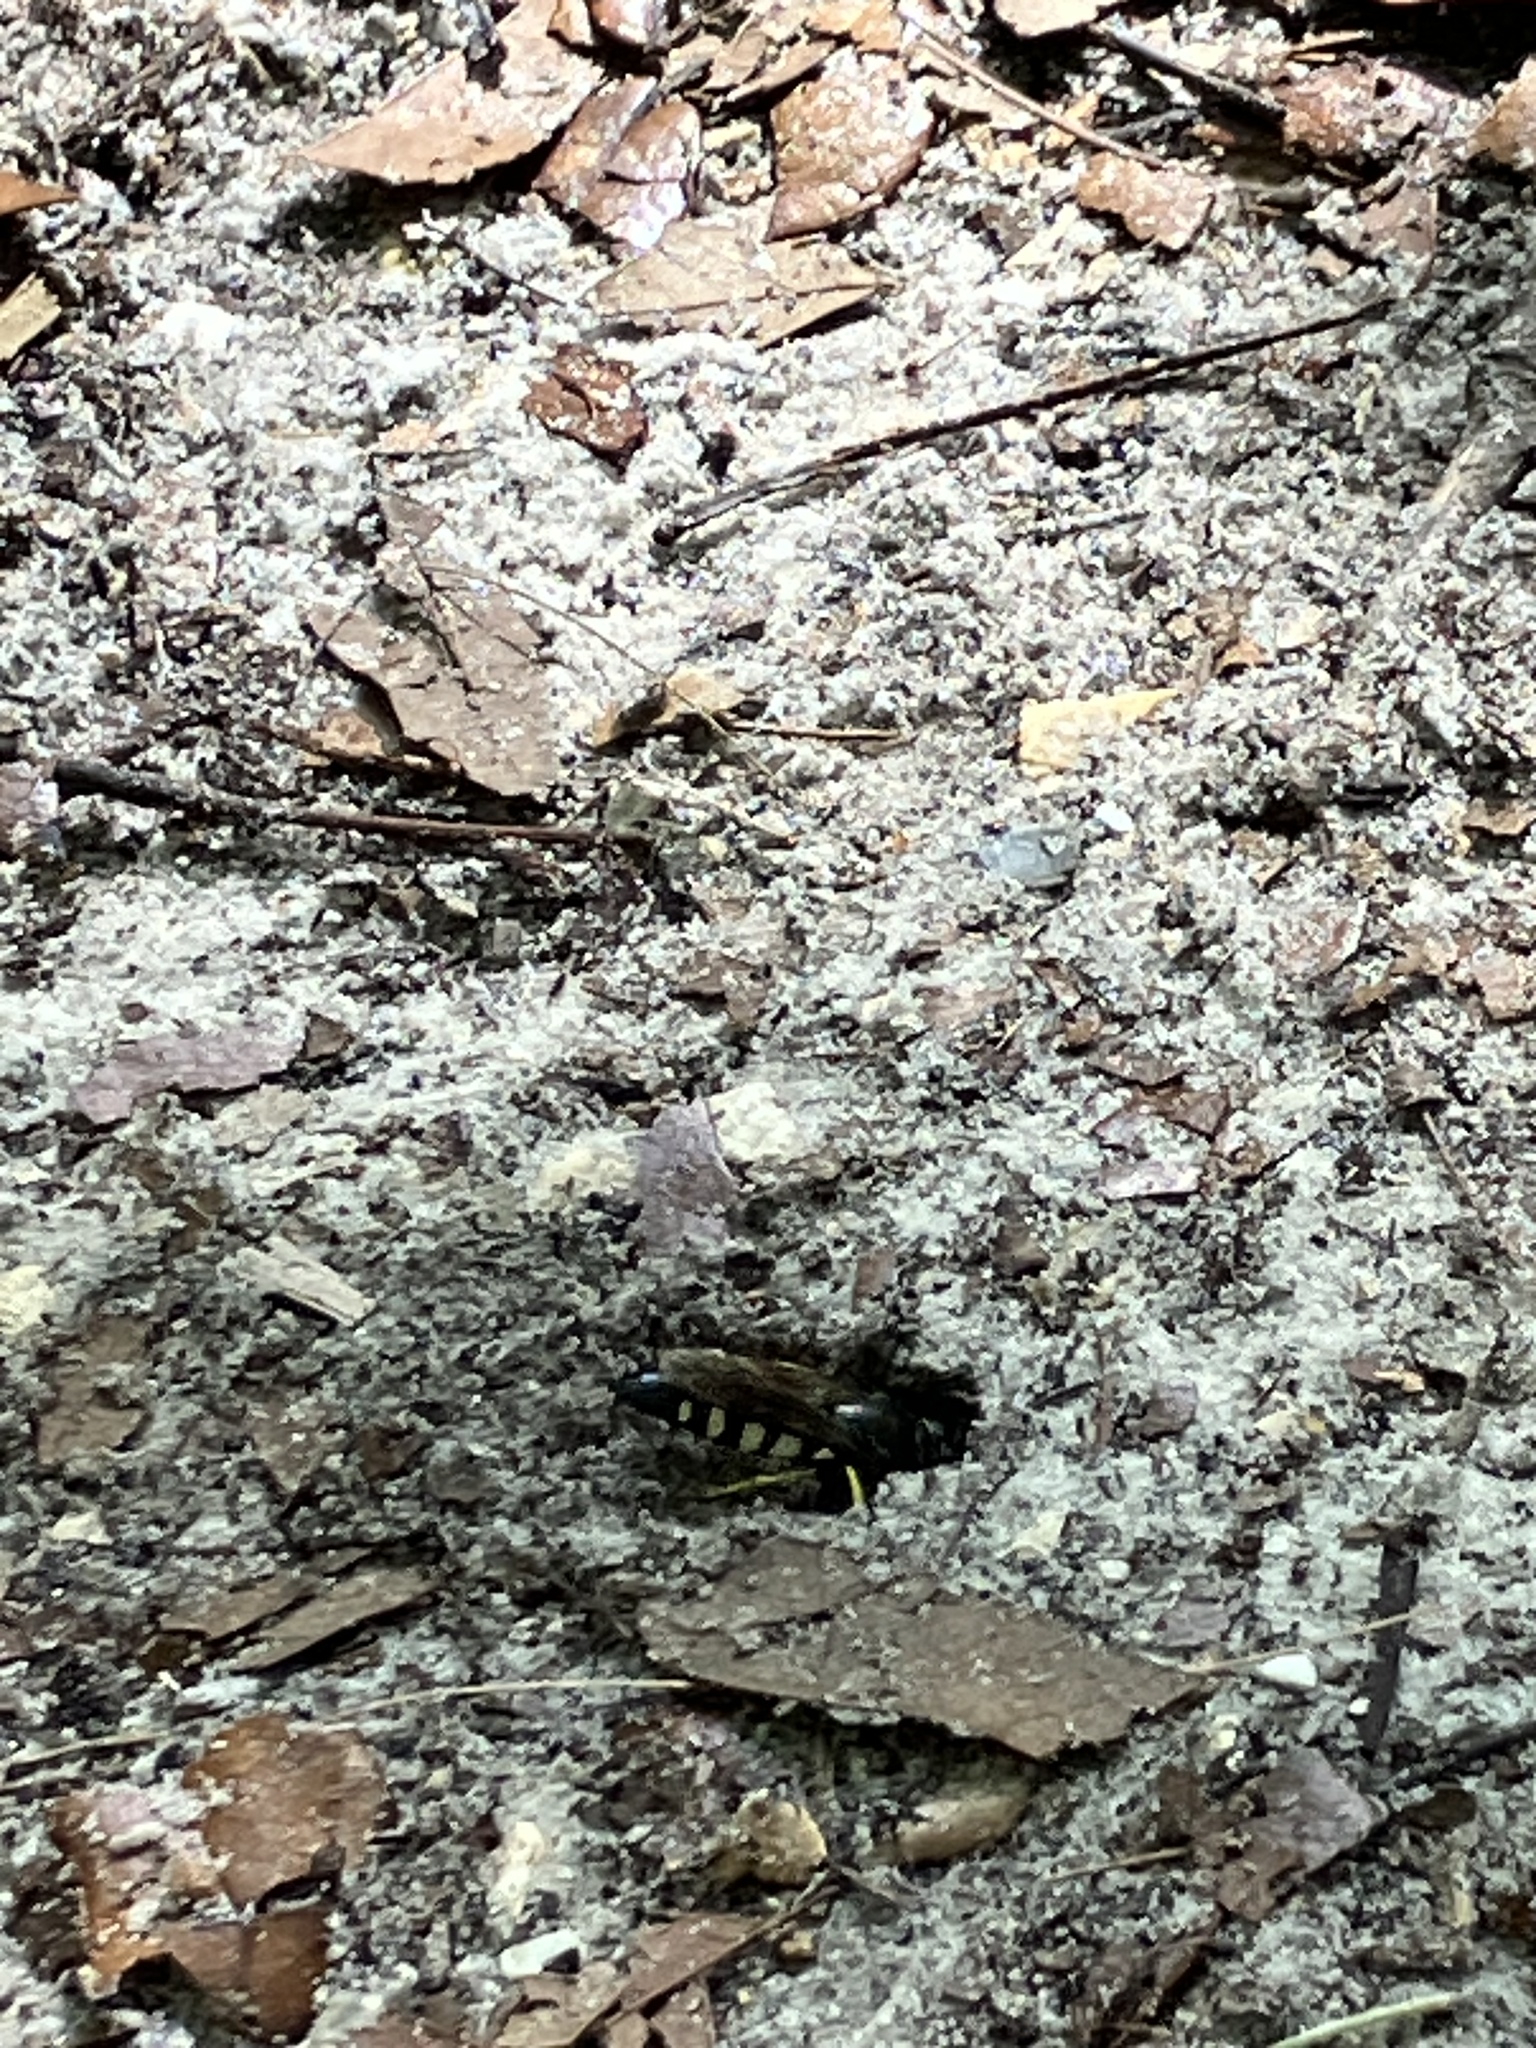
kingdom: Animalia
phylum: Arthropoda
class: Insecta
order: Hymenoptera
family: Crabronidae
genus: Bicyrtes
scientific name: Bicyrtes quadrifasciatus
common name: Four-banded stink bug hunter wasp
